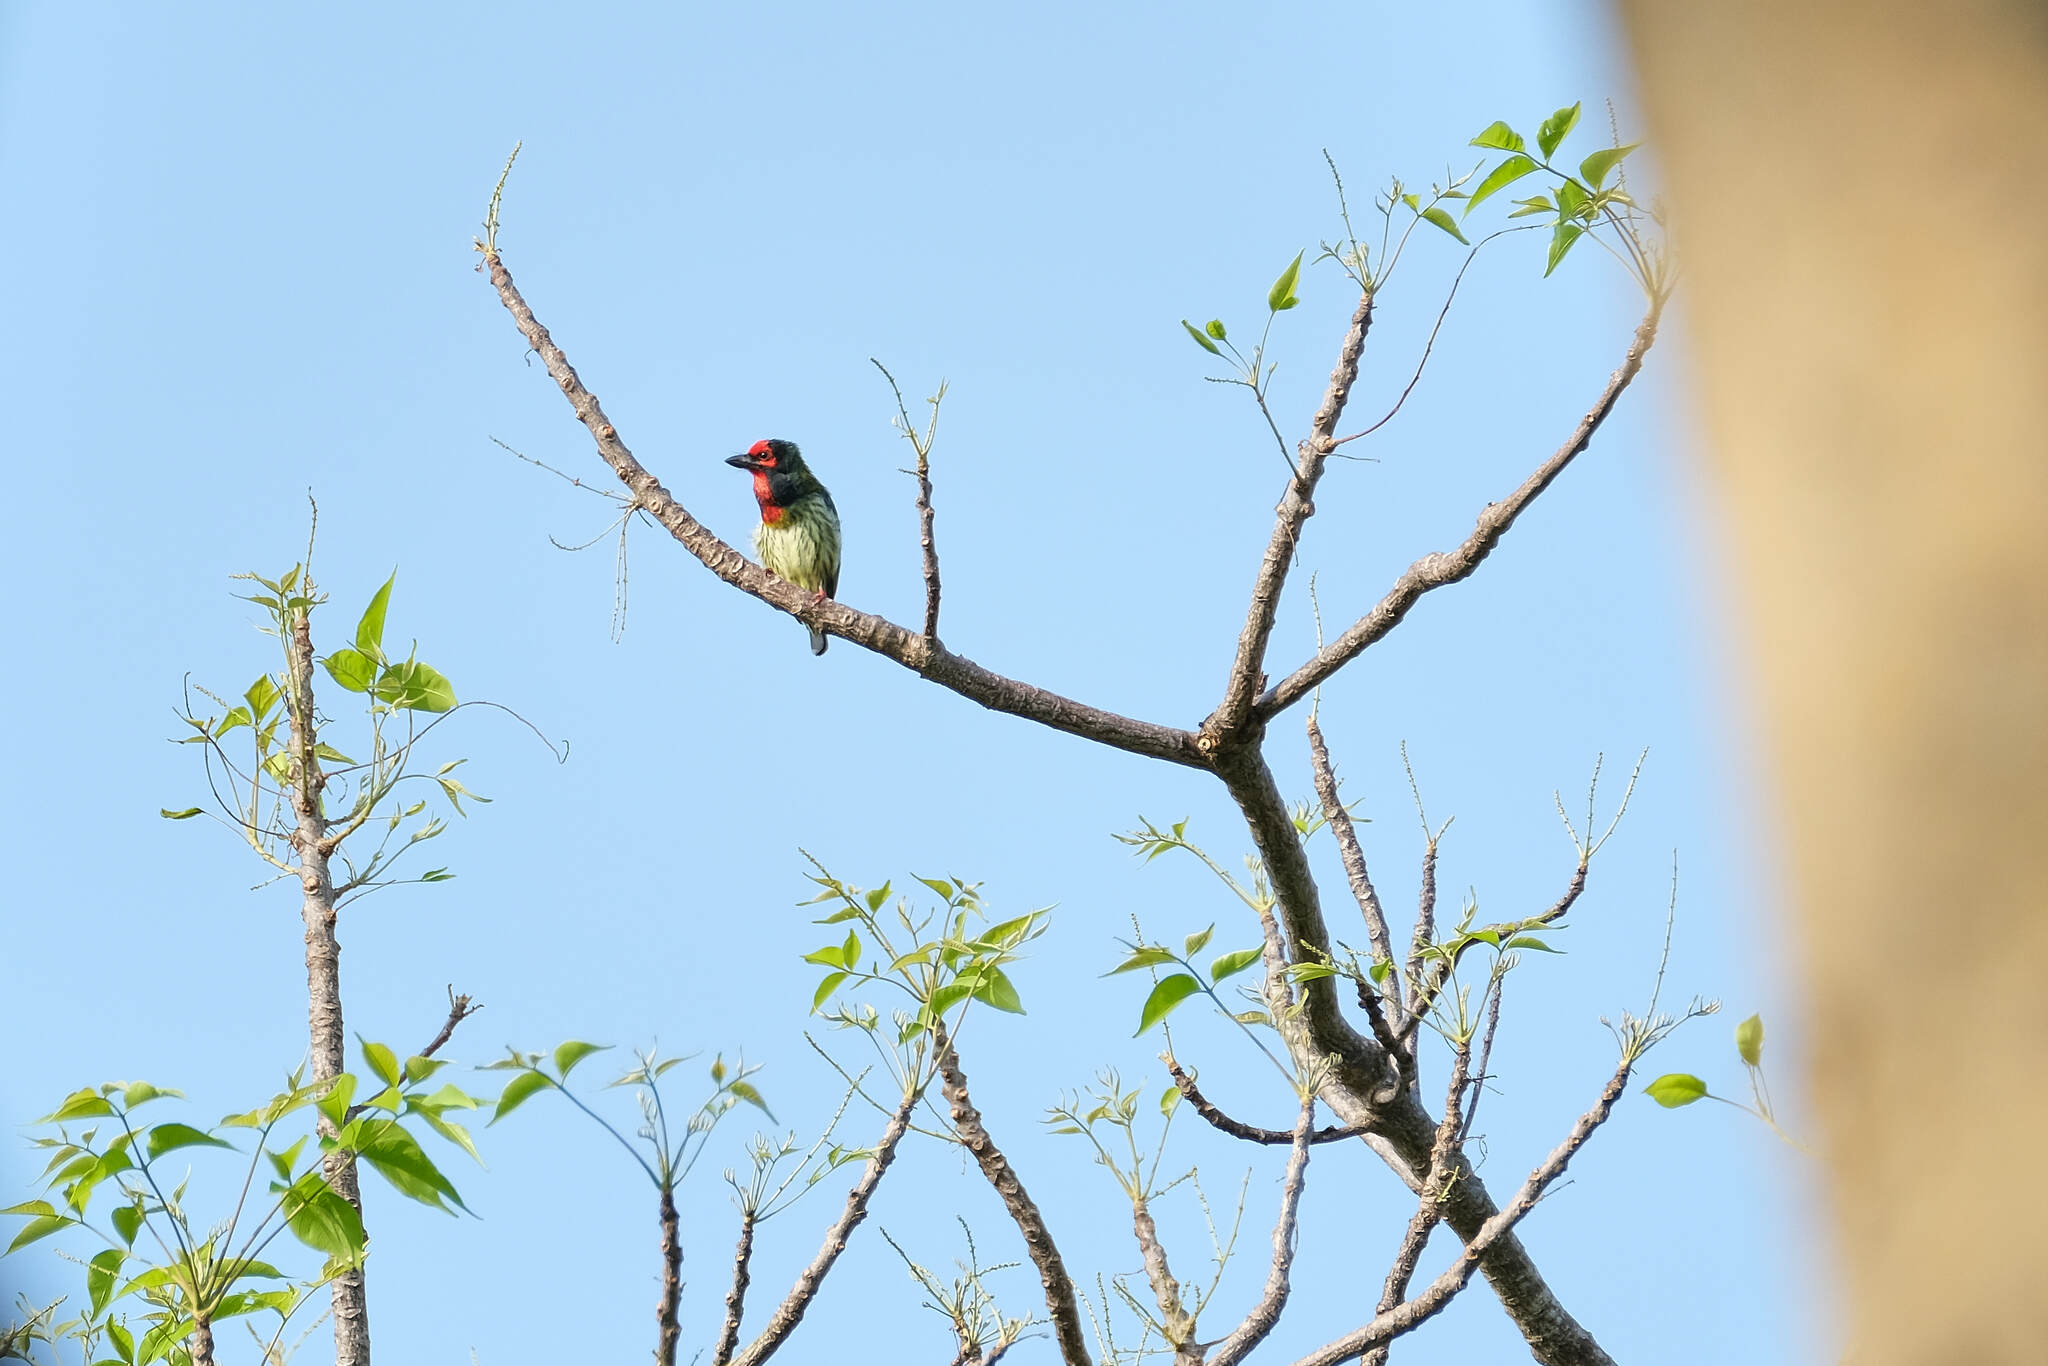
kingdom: Animalia
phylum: Chordata
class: Aves
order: Piciformes
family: Megalaimidae
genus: Psilopogon
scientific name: Psilopogon haemacephalus
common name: Coppersmith barbet
